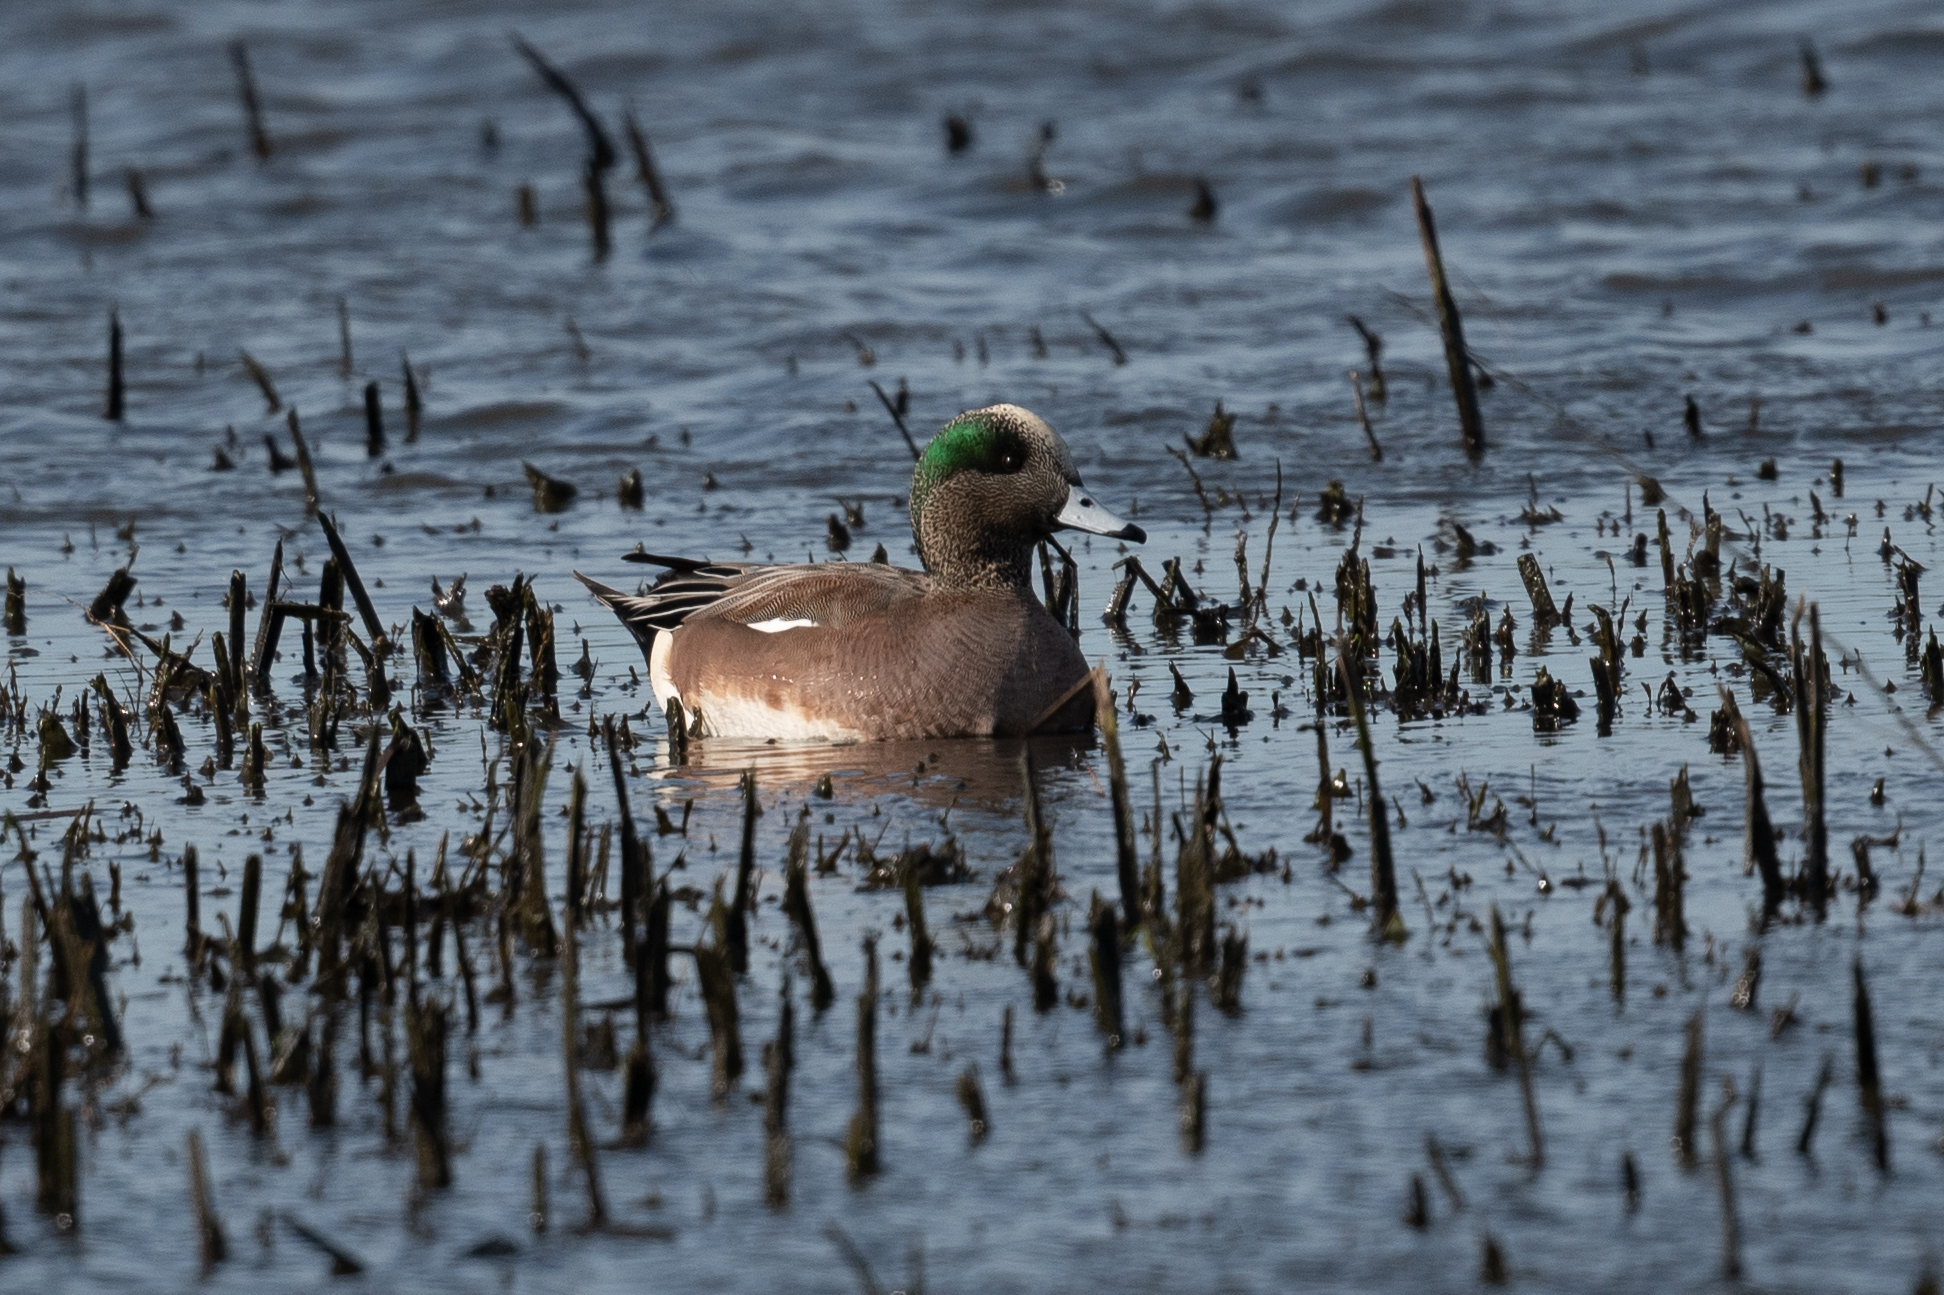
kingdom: Animalia
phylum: Chordata
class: Aves
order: Anseriformes
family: Anatidae
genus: Mareca
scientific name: Mareca americana
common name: American wigeon
